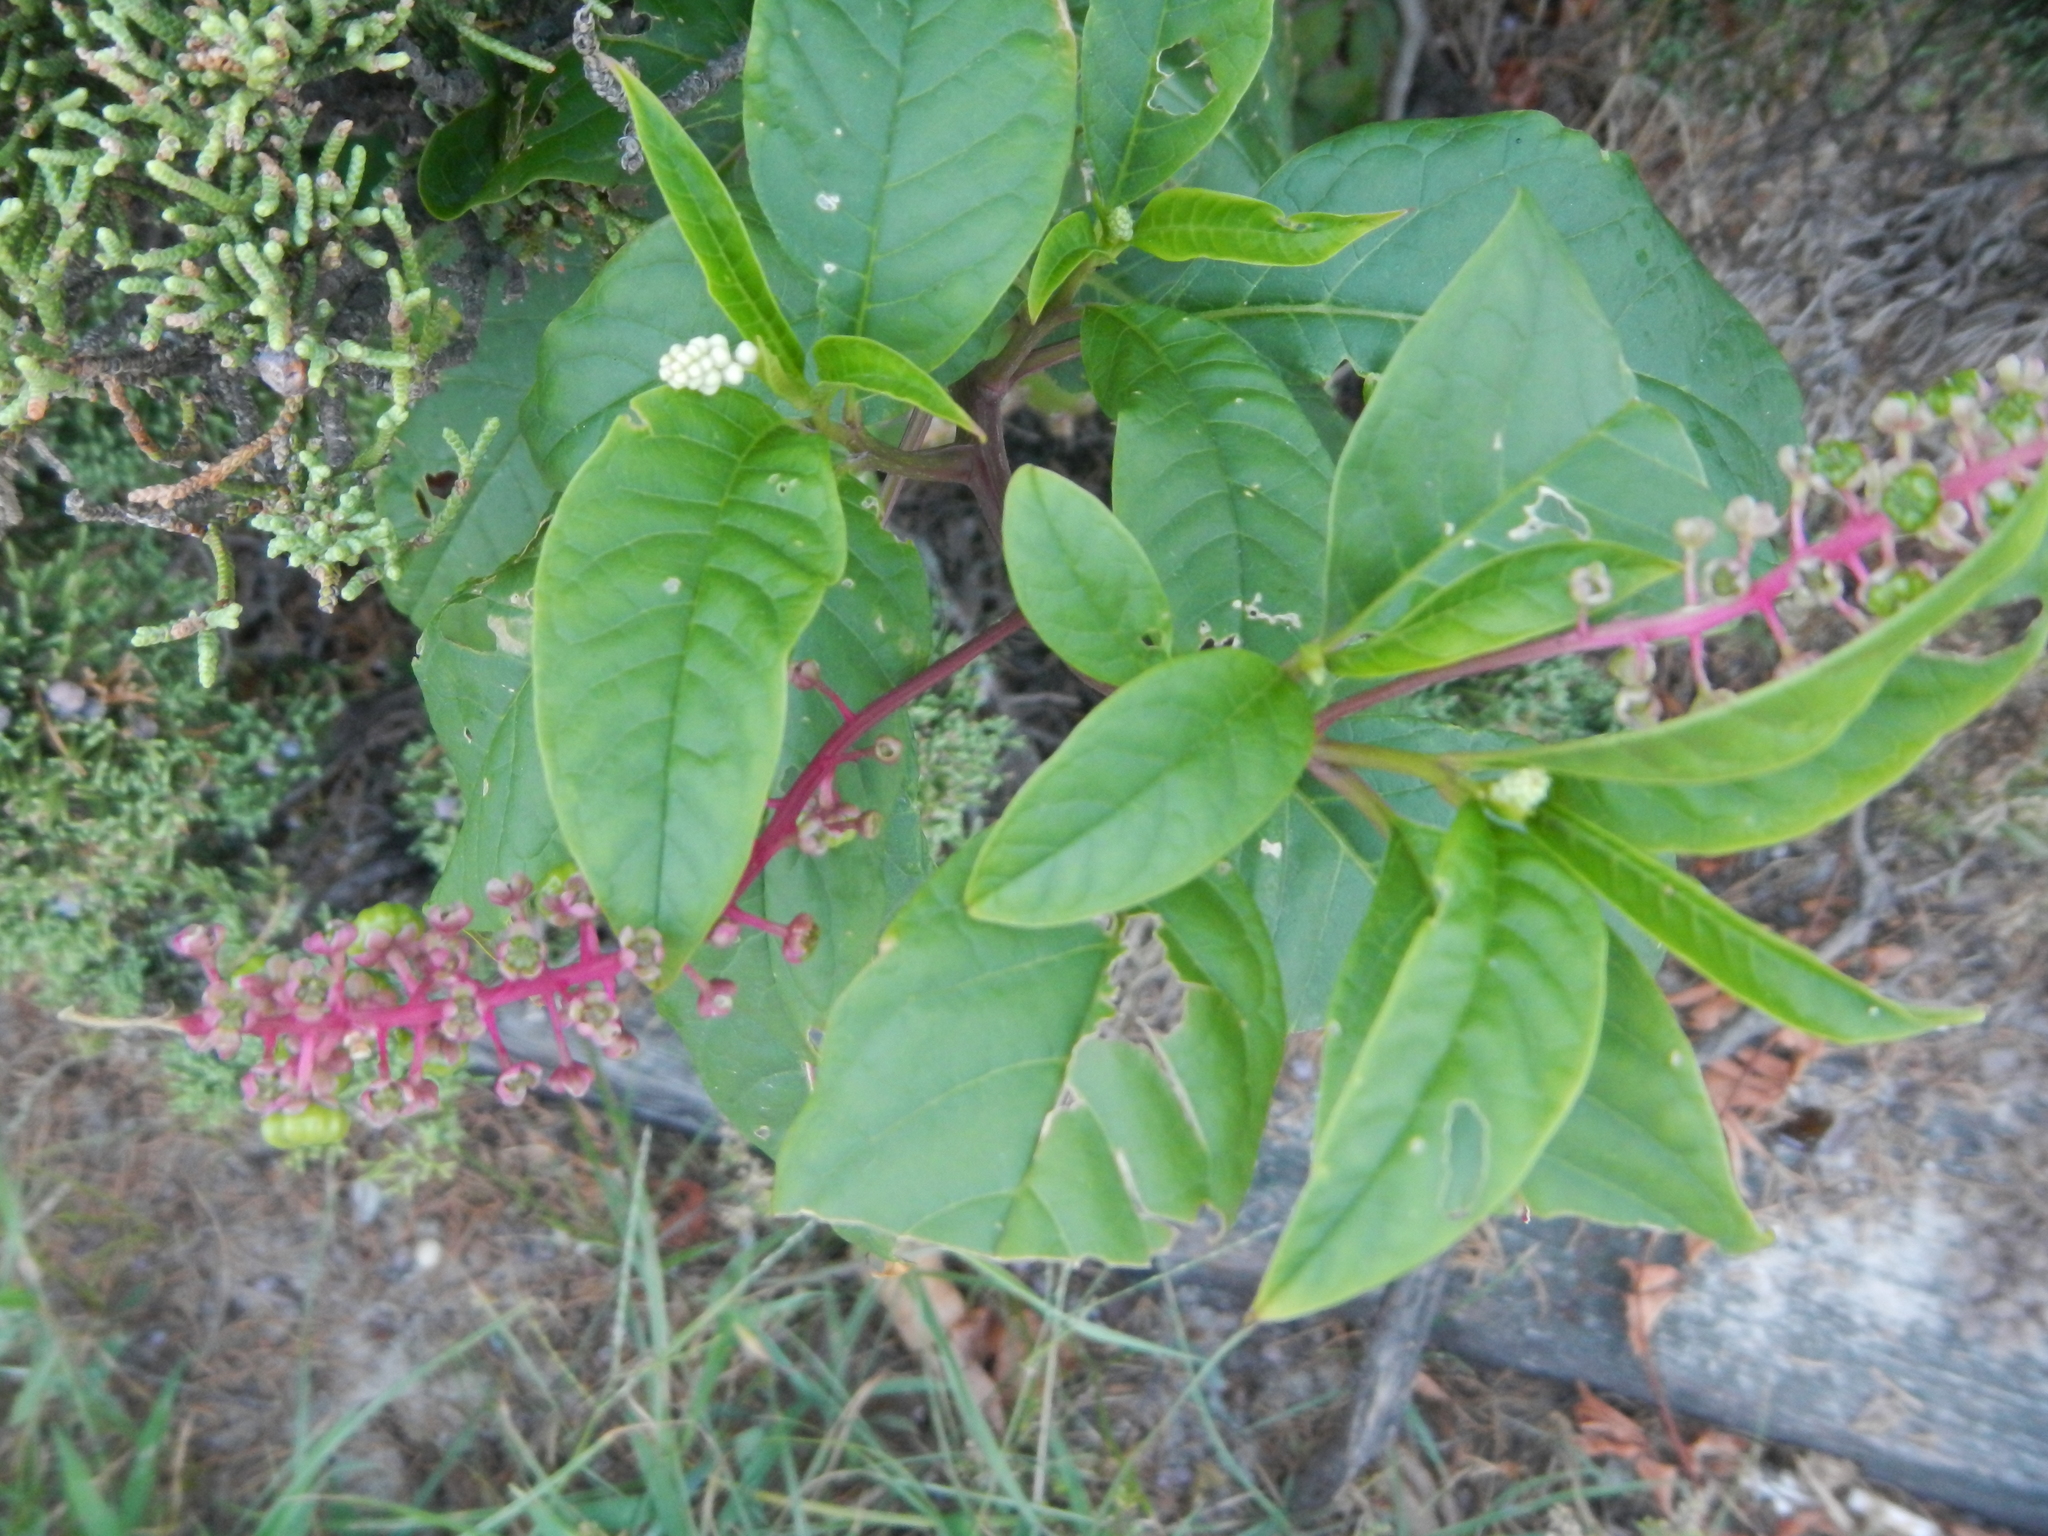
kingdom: Plantae
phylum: Tracheophyta
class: Magnoliopsida
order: Caryophyllales
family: Phytolaccaceae
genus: Phytolacca
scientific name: Phytolacca americana
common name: American pokeweed
